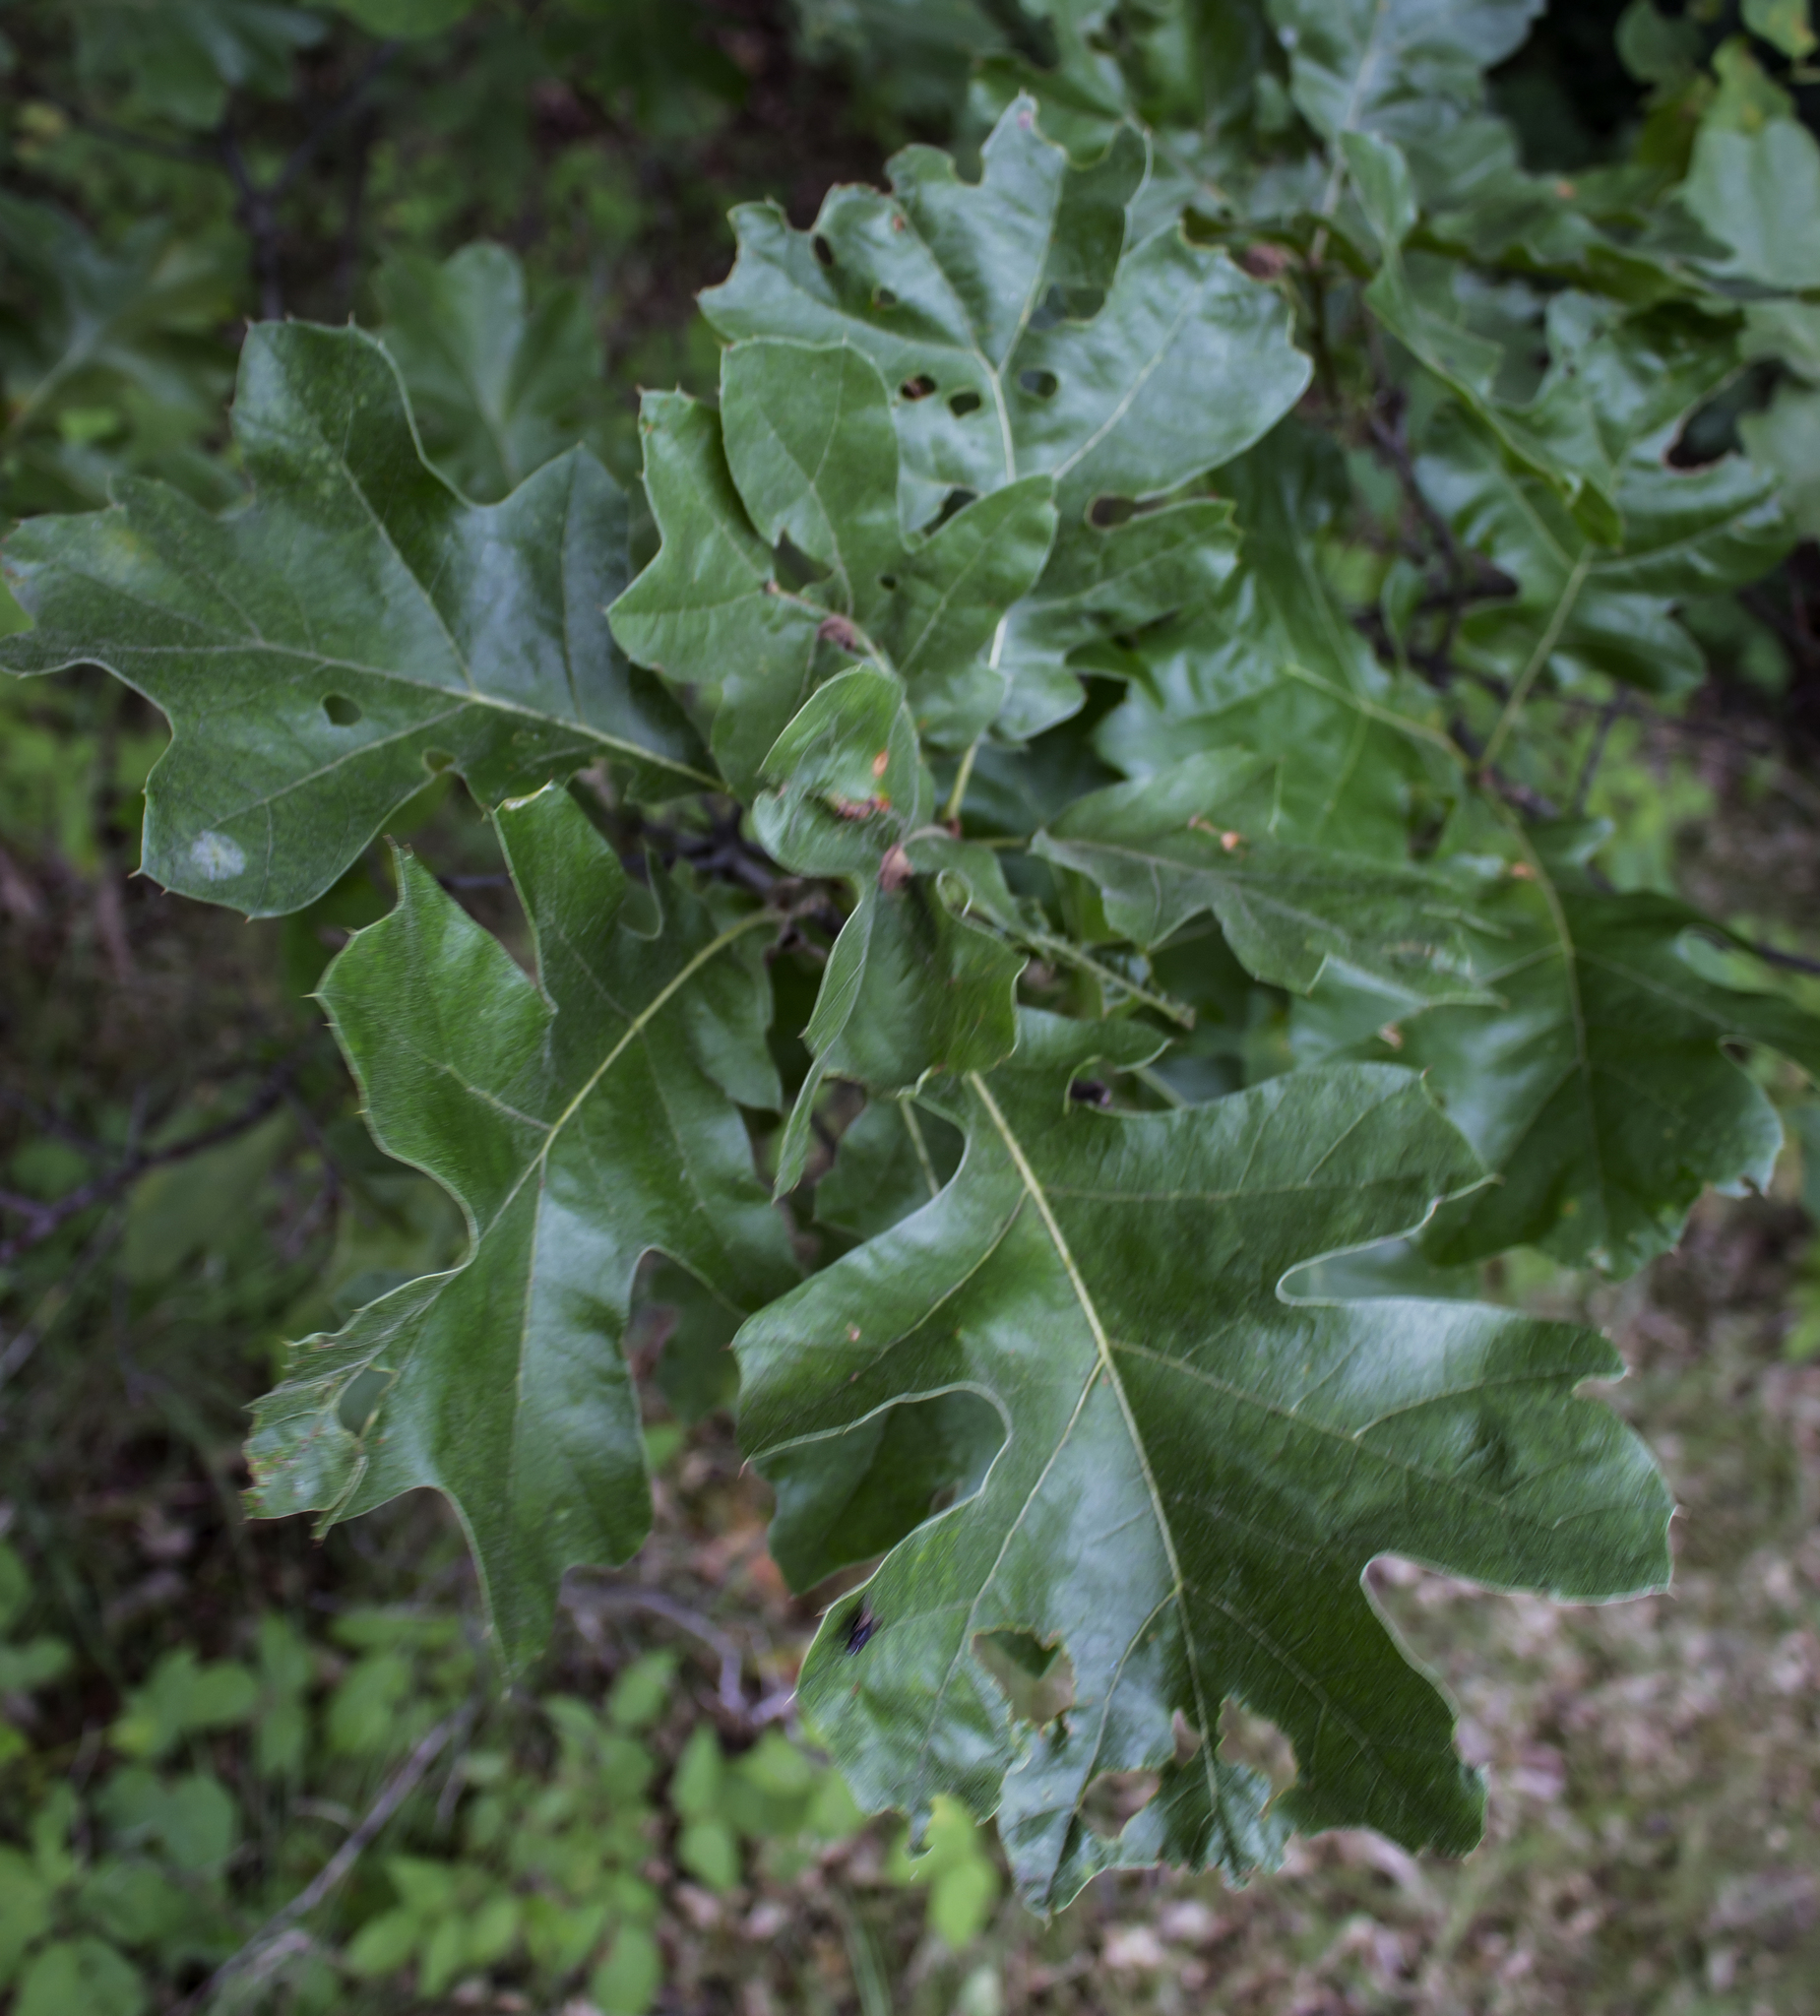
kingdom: Plantae
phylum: Tracheophyta
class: Magnoliopsida
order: Fagales
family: Fagaceae
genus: Quercus
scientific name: Quercus velutina
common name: Black oak
